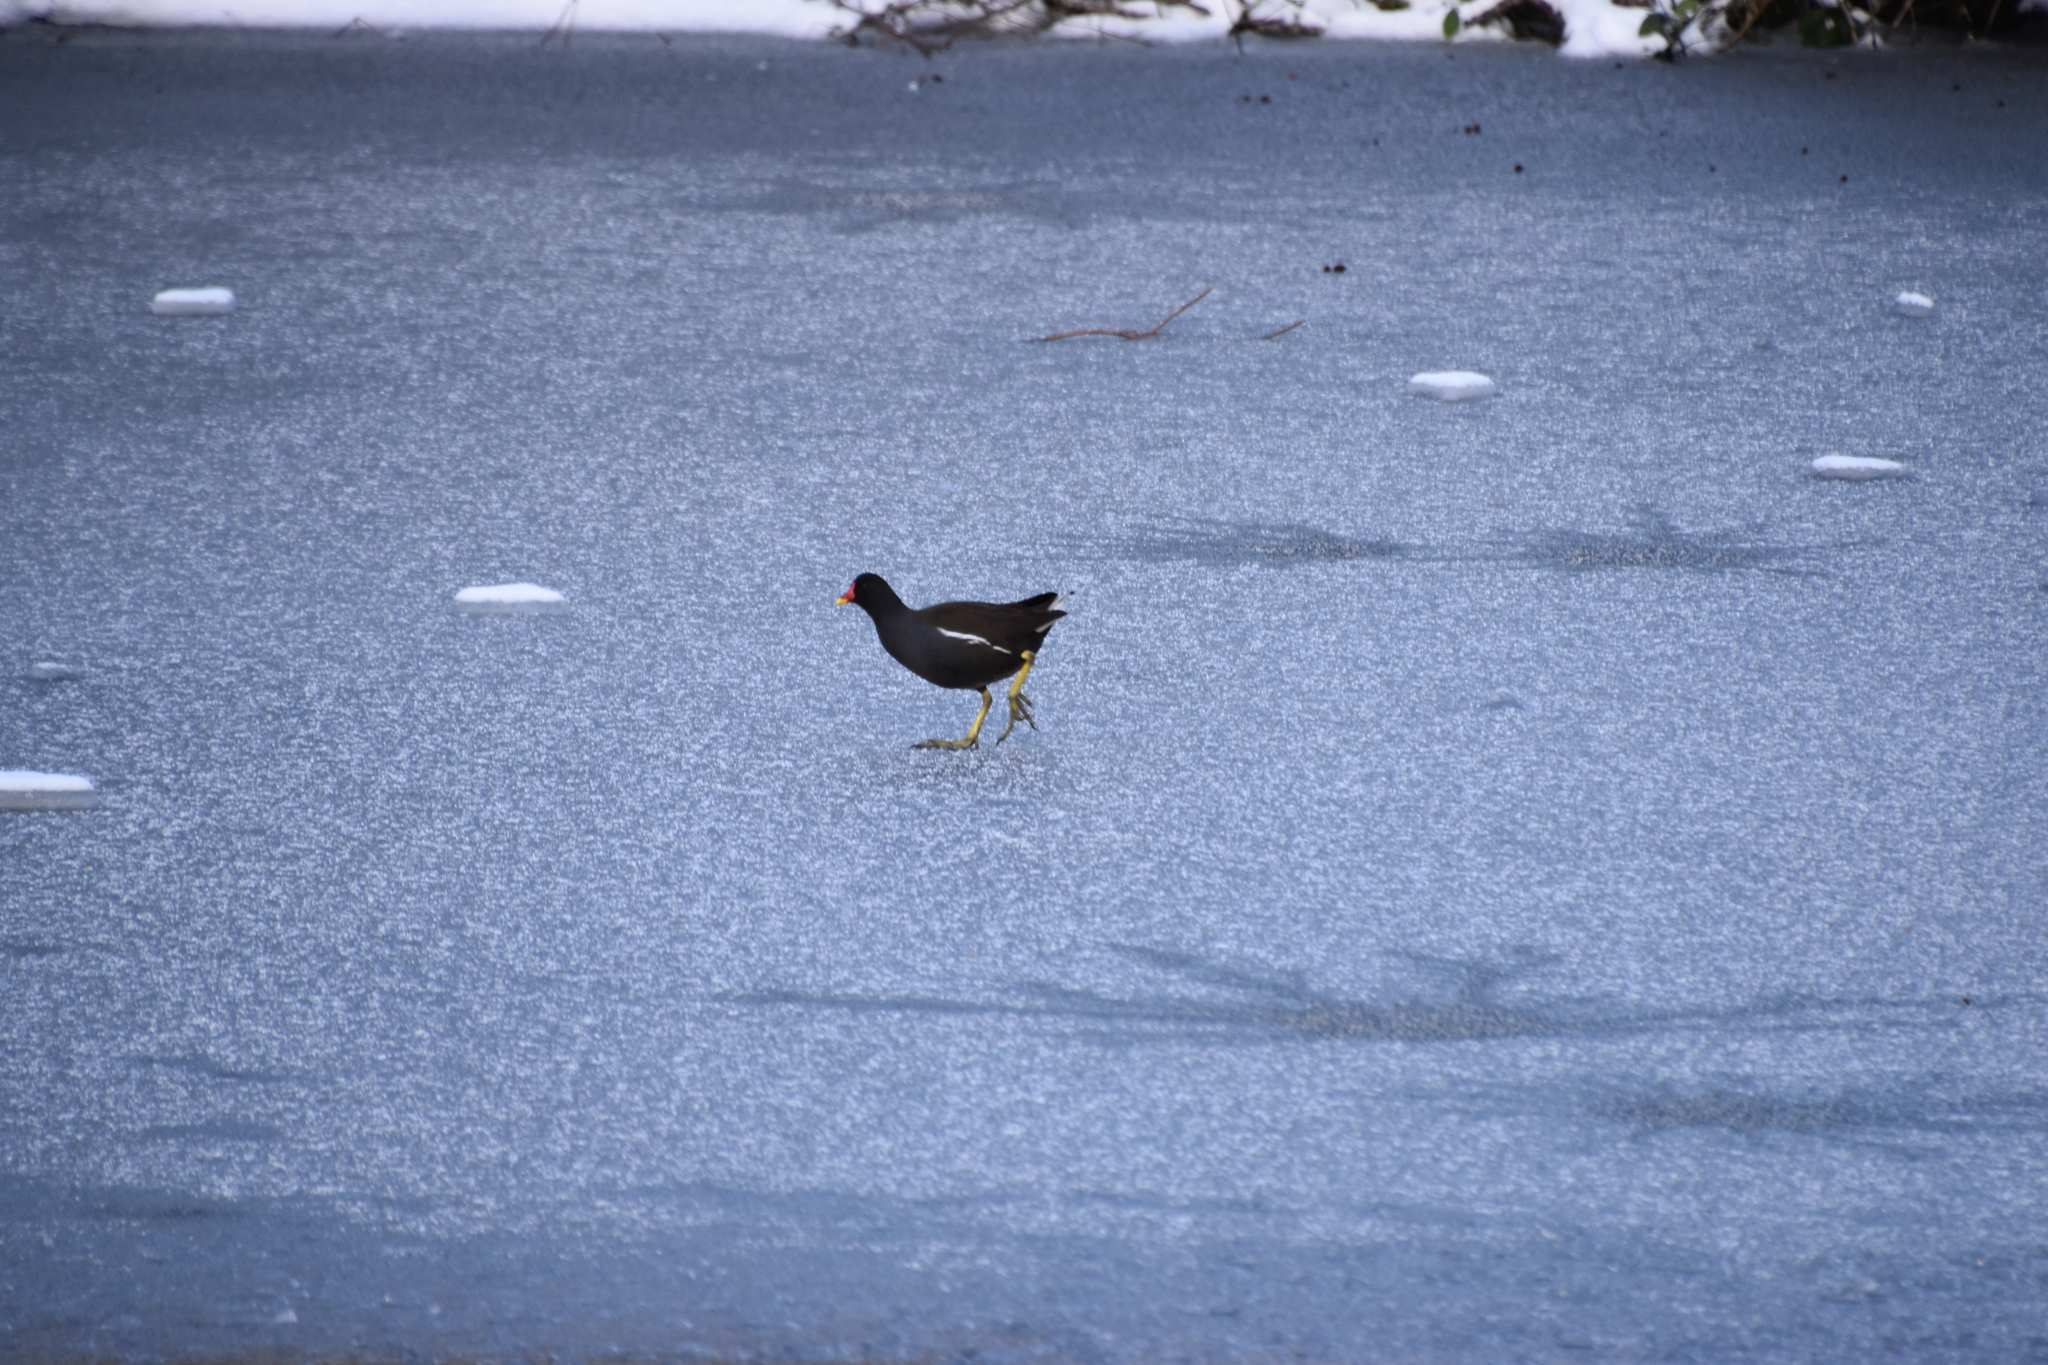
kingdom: Animalia
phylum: Chordata
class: Aves
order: Gruiformes
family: Rallidae
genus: Gallinula
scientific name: Gallinula chloropus
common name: Common moorhen
